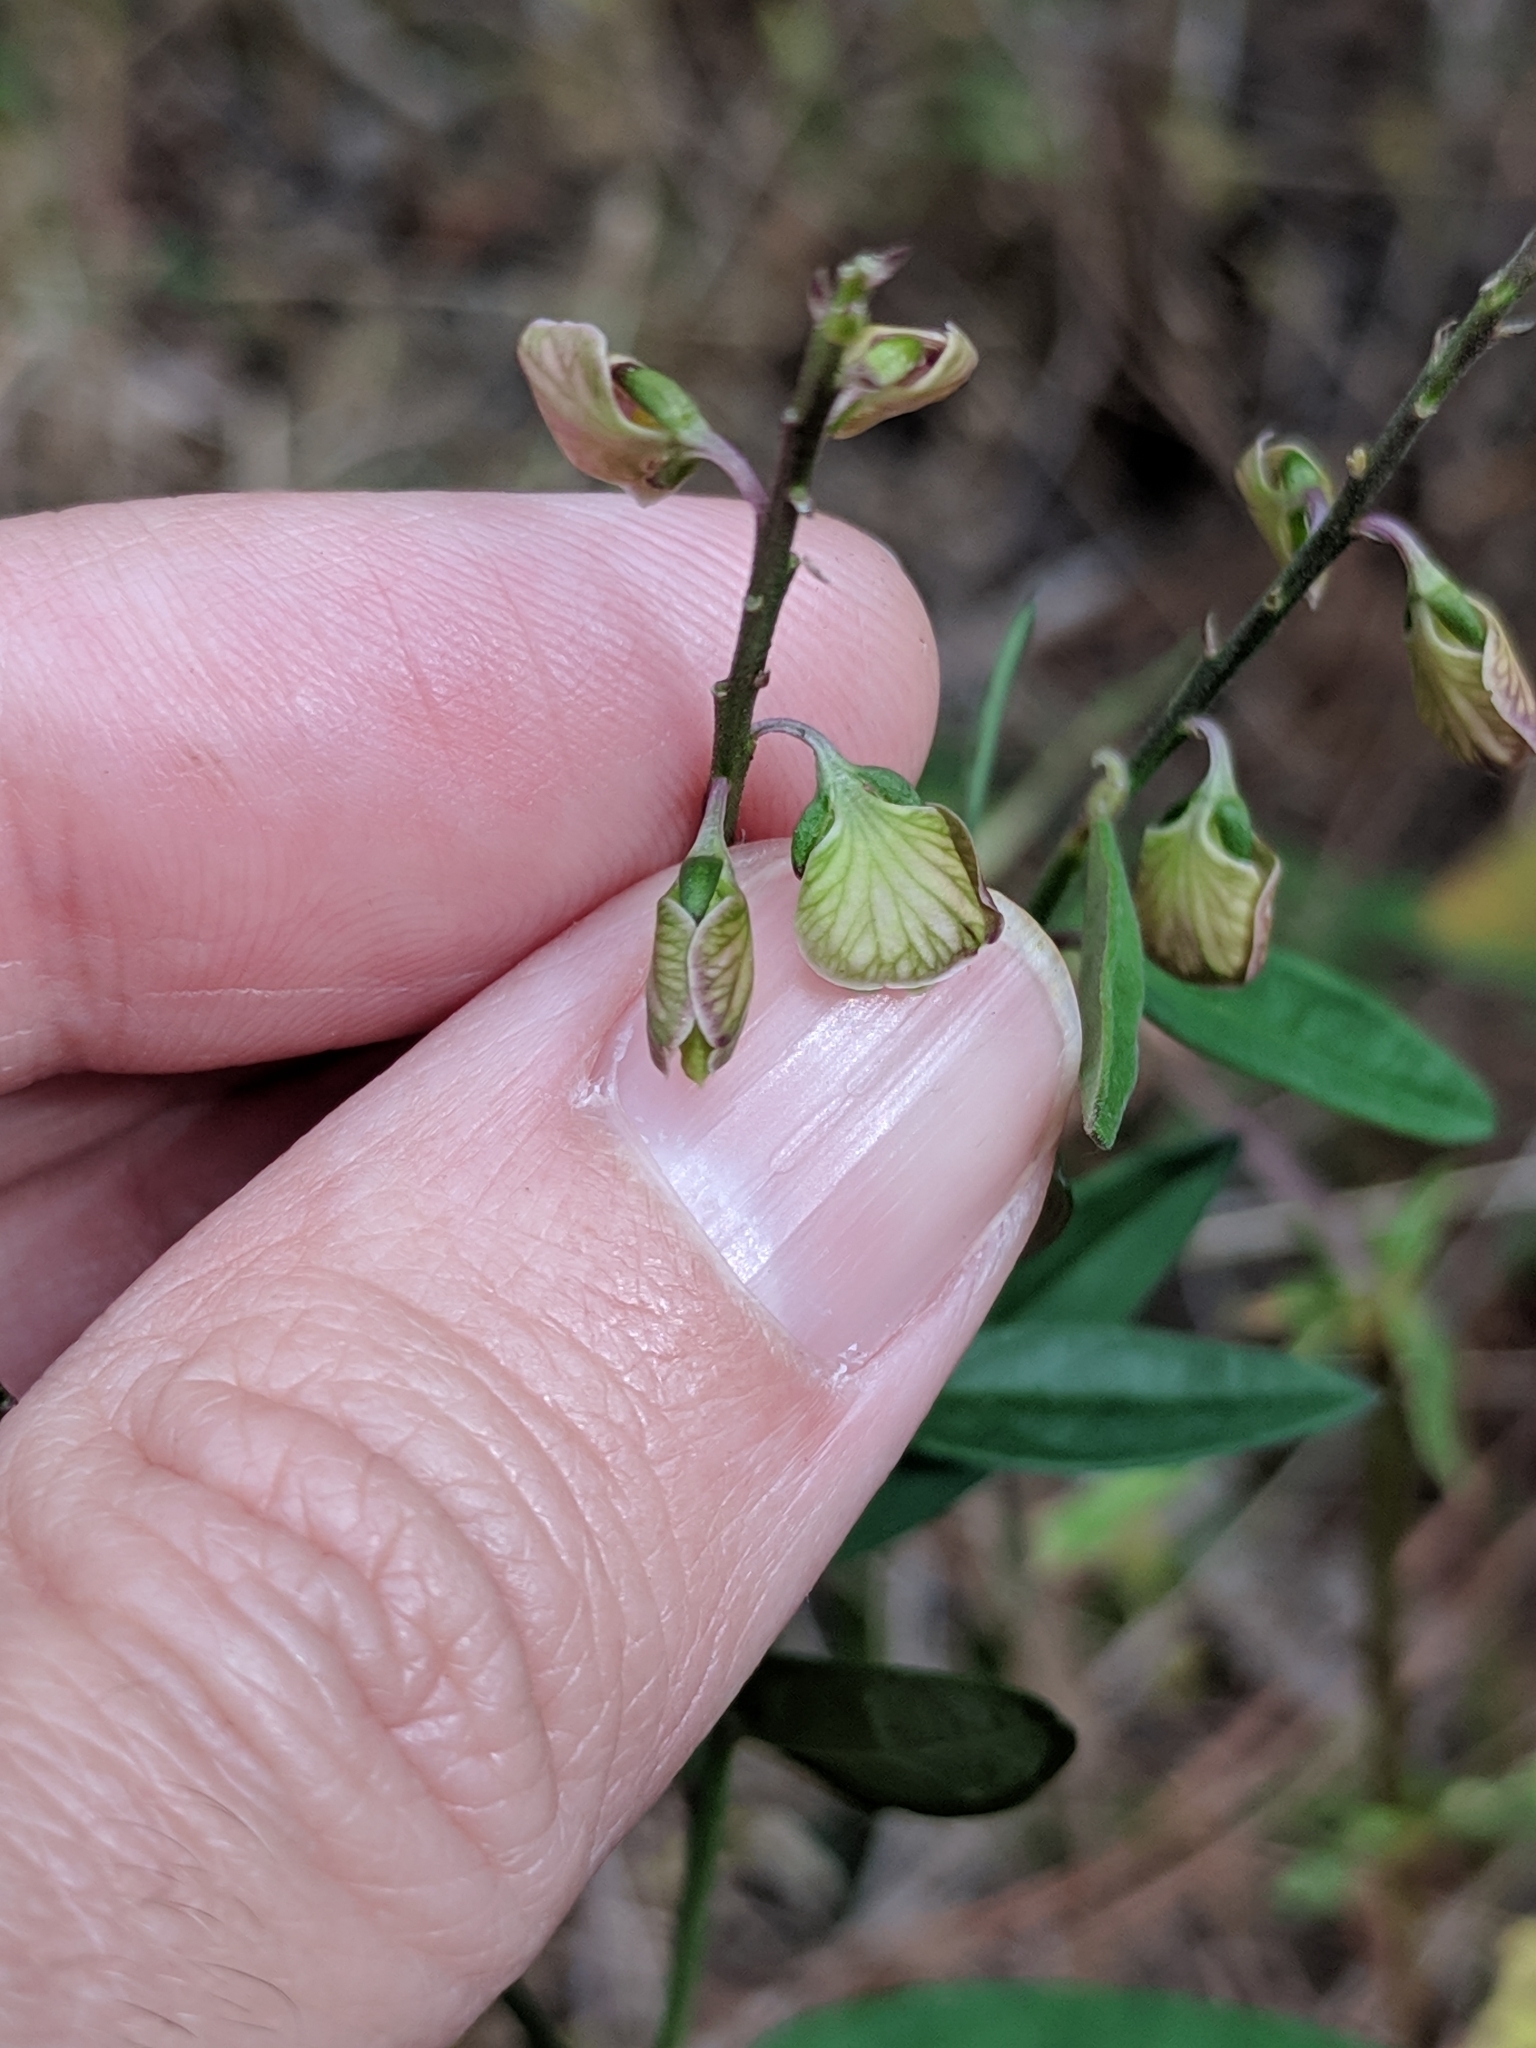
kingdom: Plantae
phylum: Tracheophyta
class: Magnoliopsida
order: Fabales
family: Polygalaceae
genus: Asemeia
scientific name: Asemeia grandiflora
